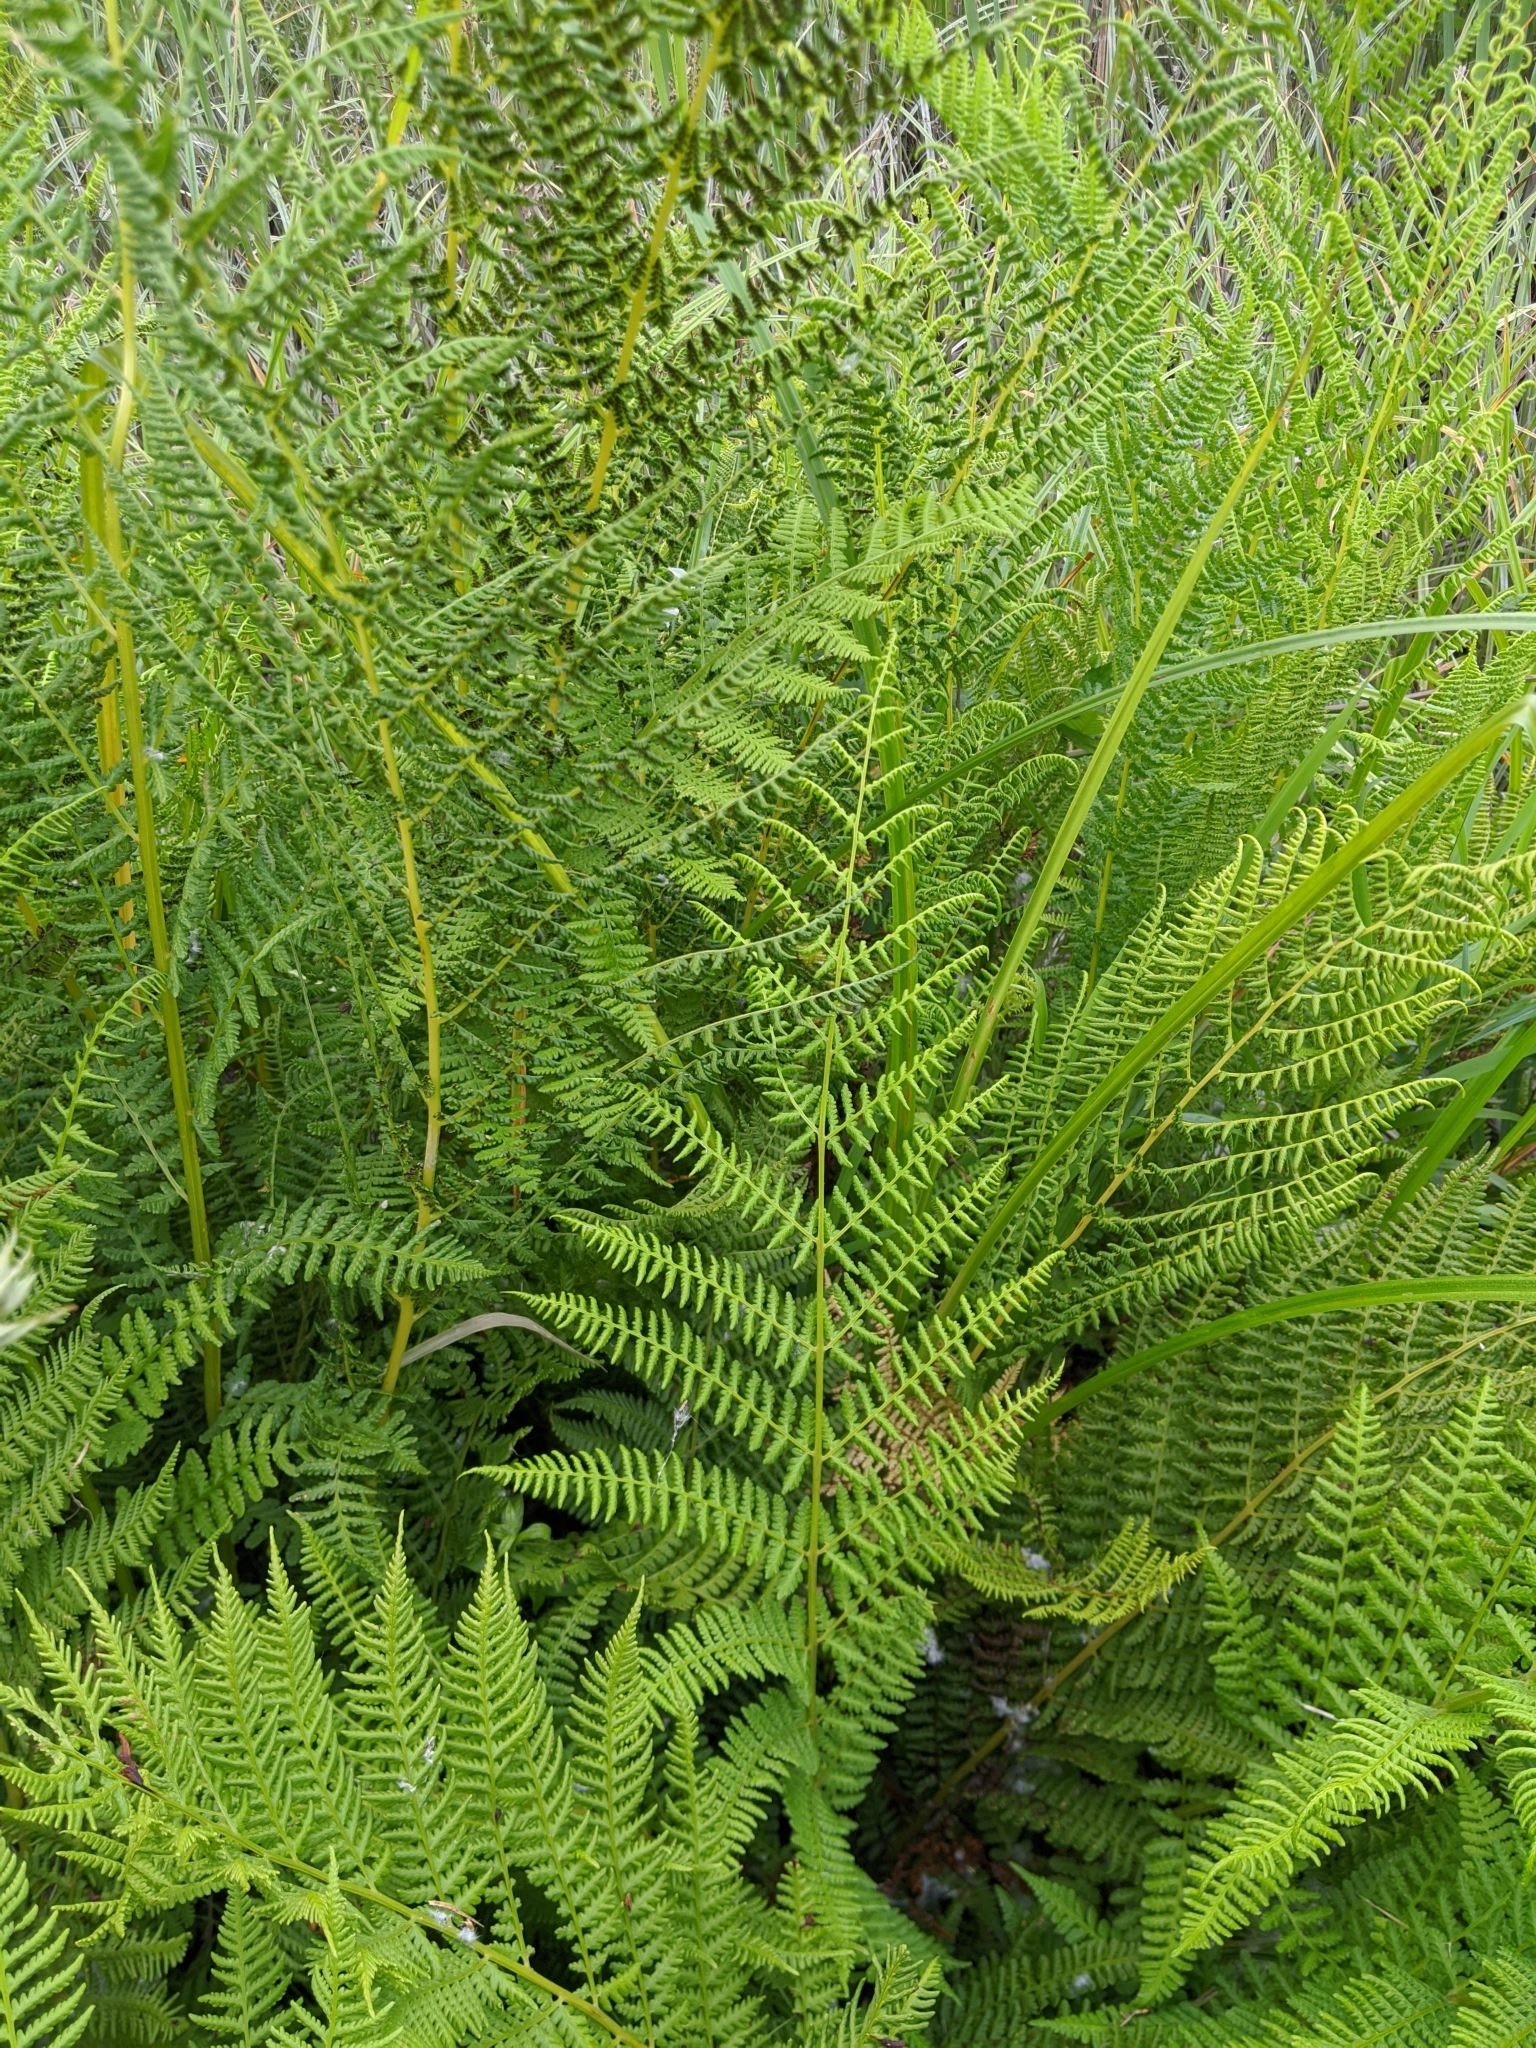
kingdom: Plantae
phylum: Tracheophyta
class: Polypodiopsida
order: Polypodiales
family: Athyriaceae
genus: Athyrium
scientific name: Athyrium filix-femina
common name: Lady fern
